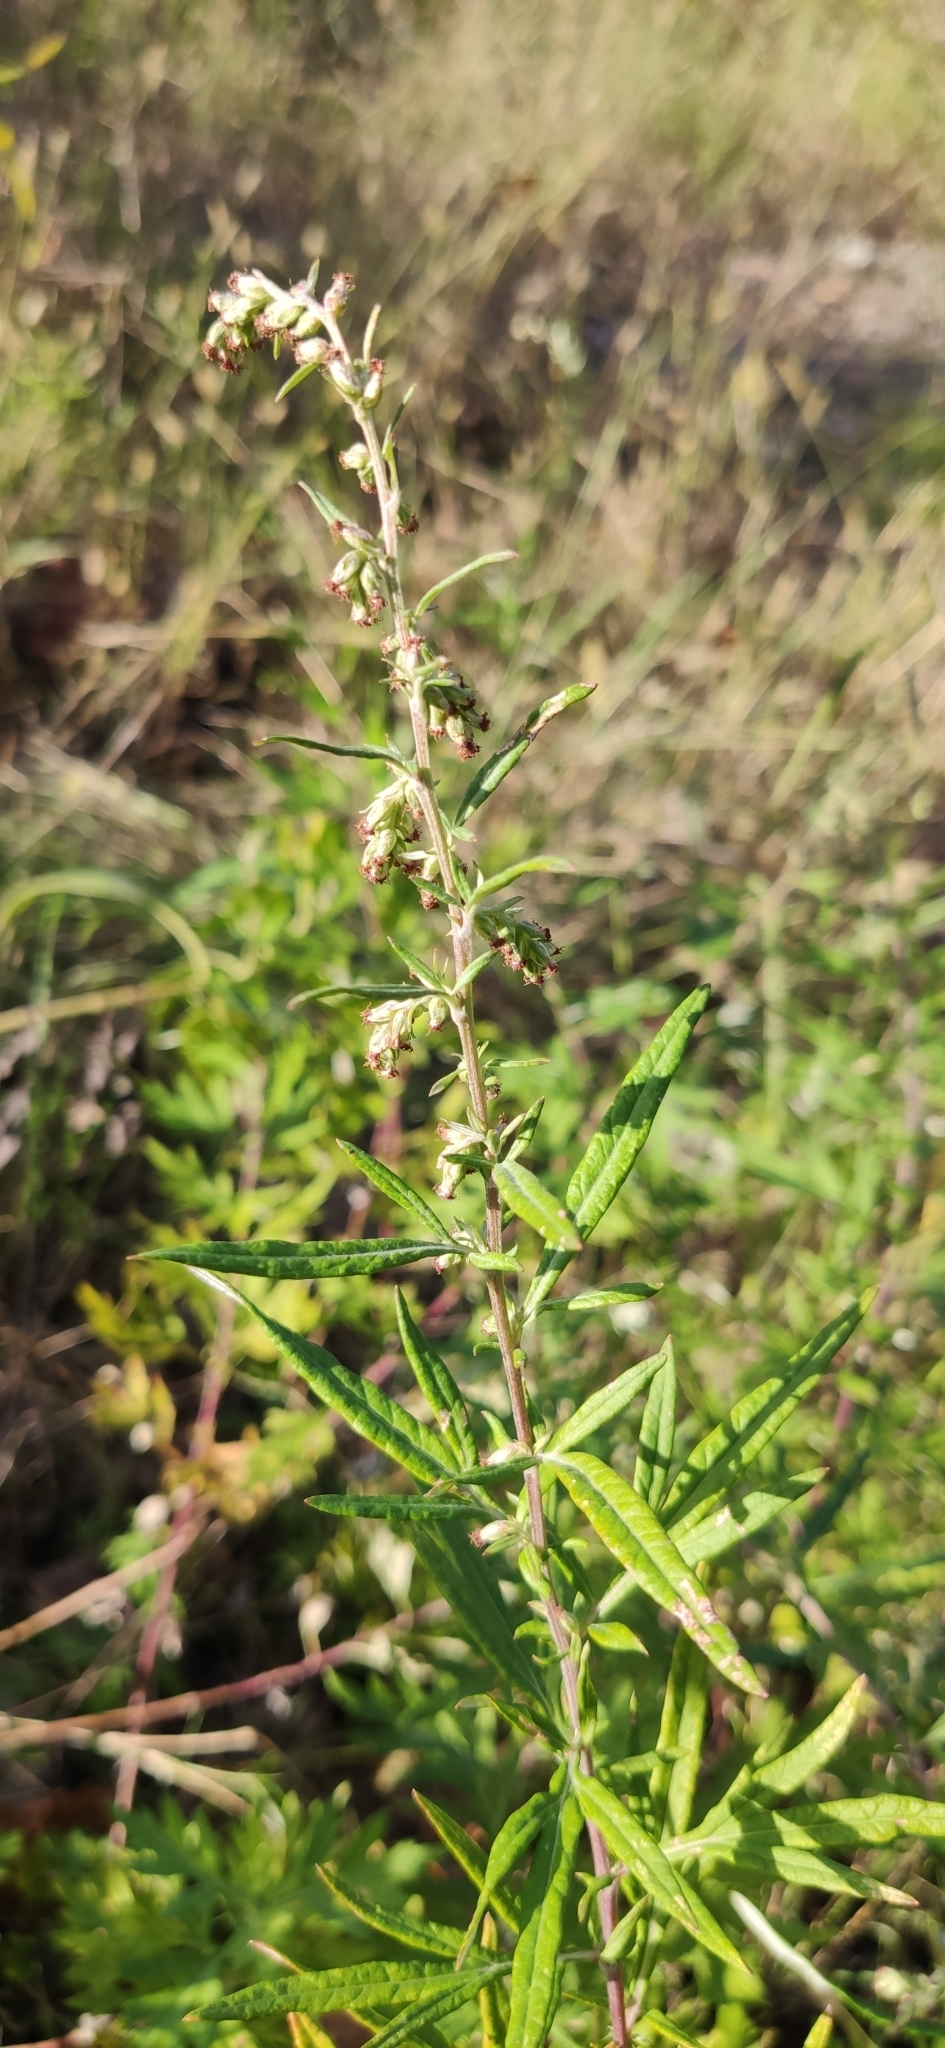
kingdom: Plantae
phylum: Tracheophyta
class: Magnoliopsida
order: Asterales
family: Asteraceae
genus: Artemisia
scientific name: Artemisia vulgaris
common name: Mugwort
